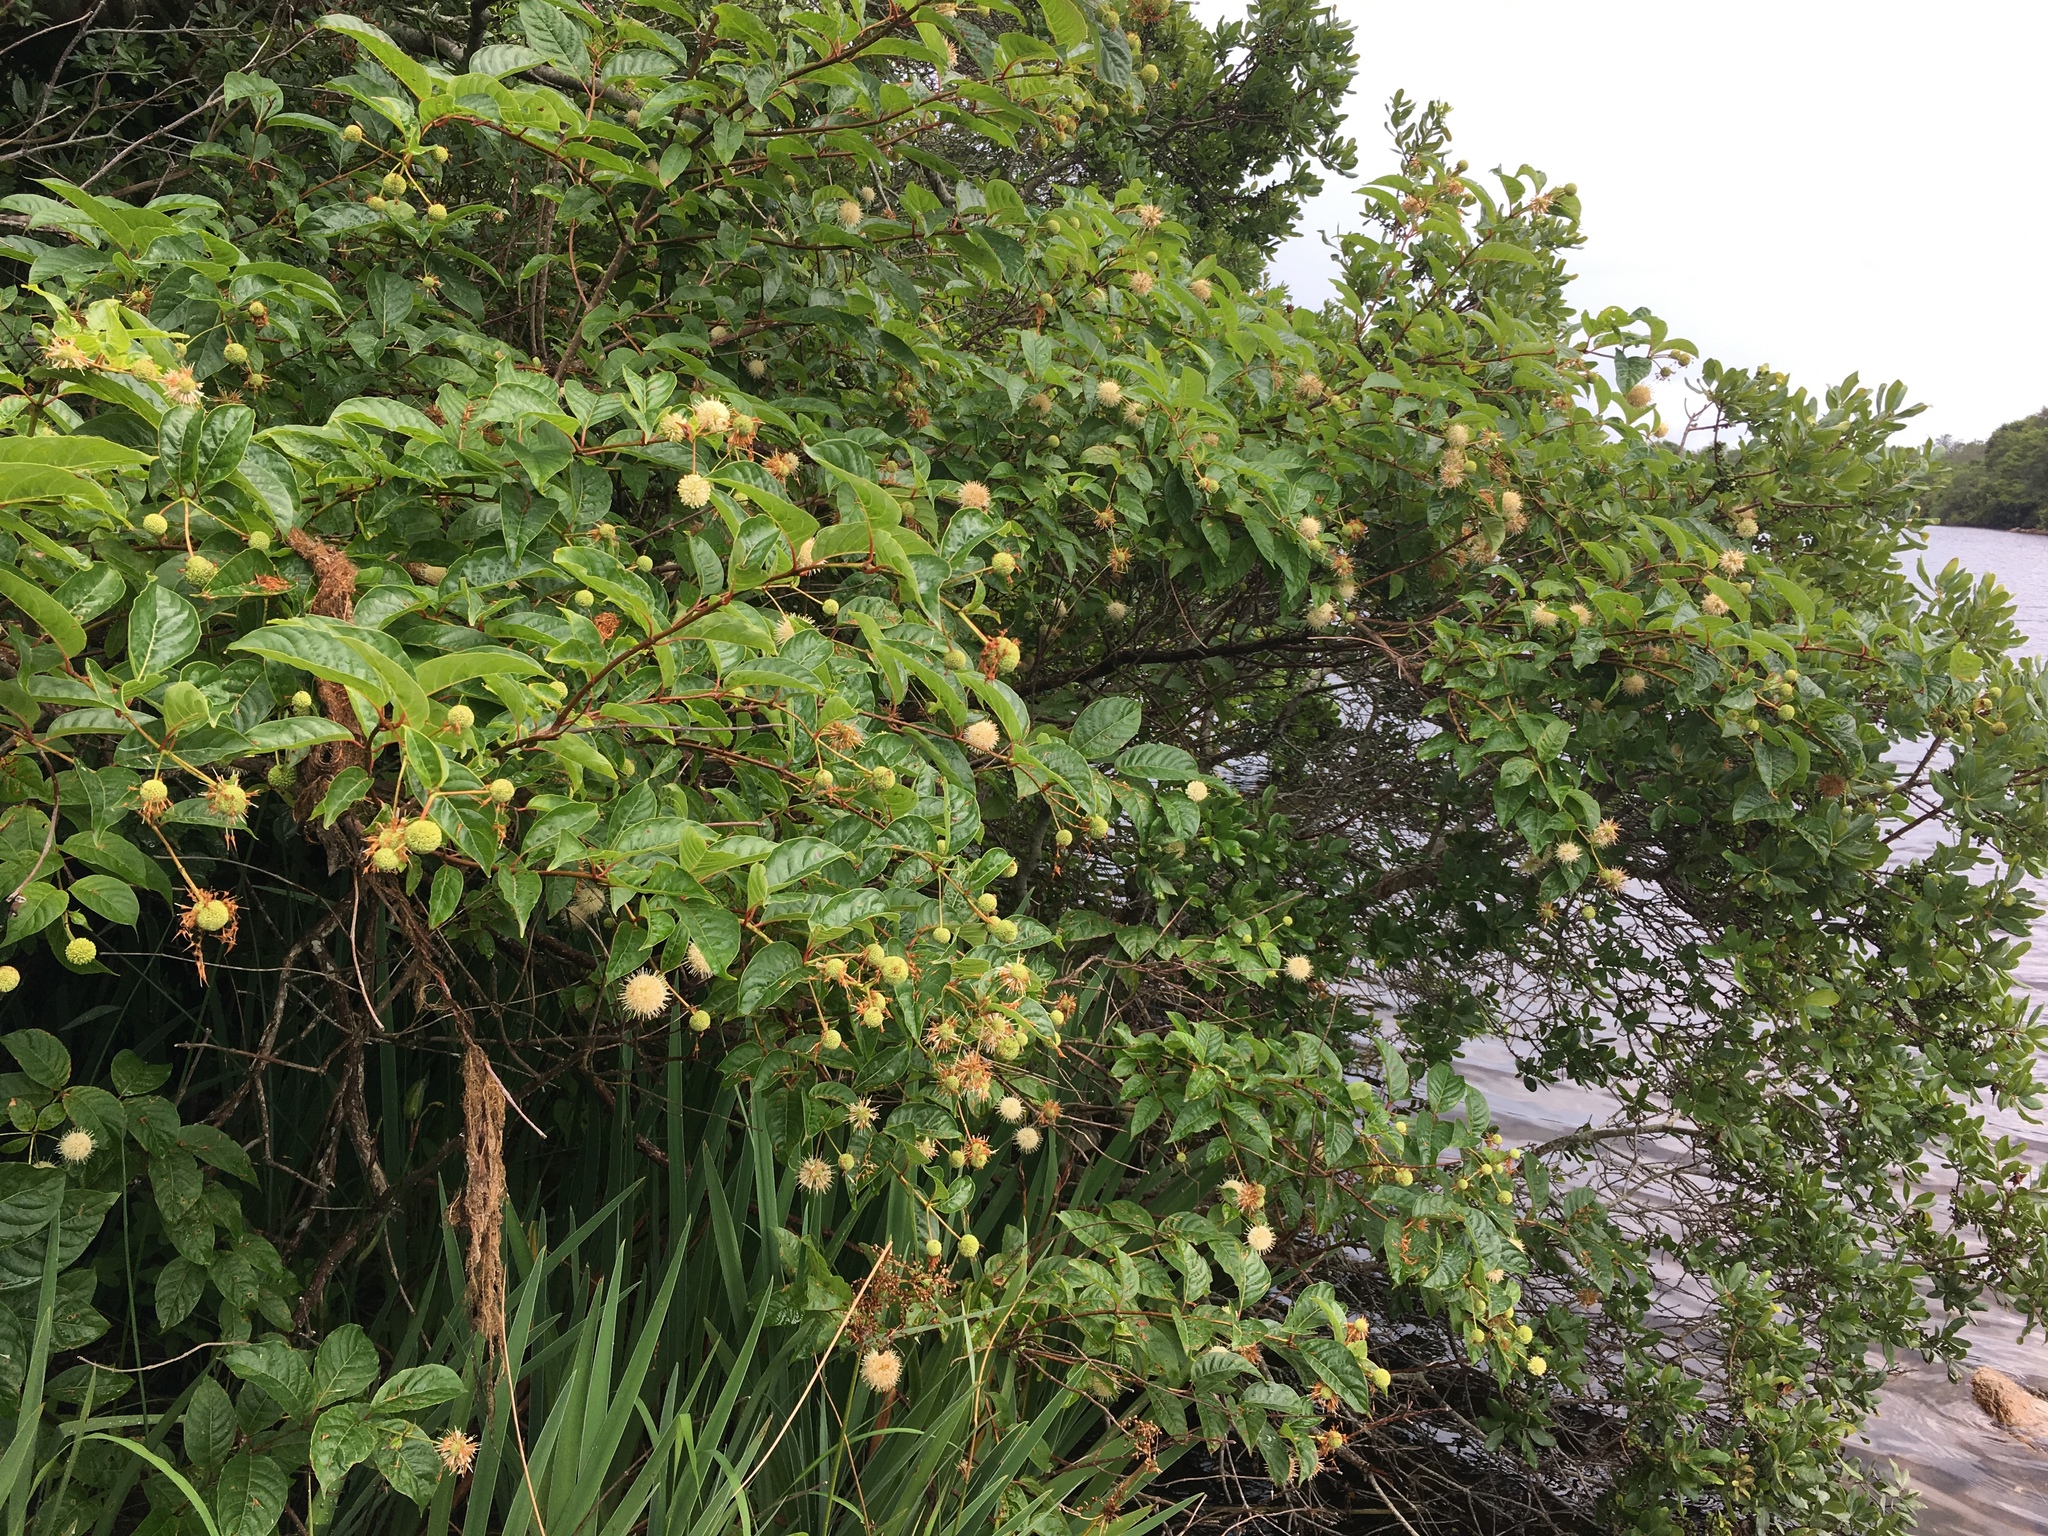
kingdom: Plantae
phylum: Tracheophyta
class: Magnoliopsida
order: Gentianales
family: Rubiaceae
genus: Cephalanthus
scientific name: Cephalanthus occidentalis
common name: Button-willow
